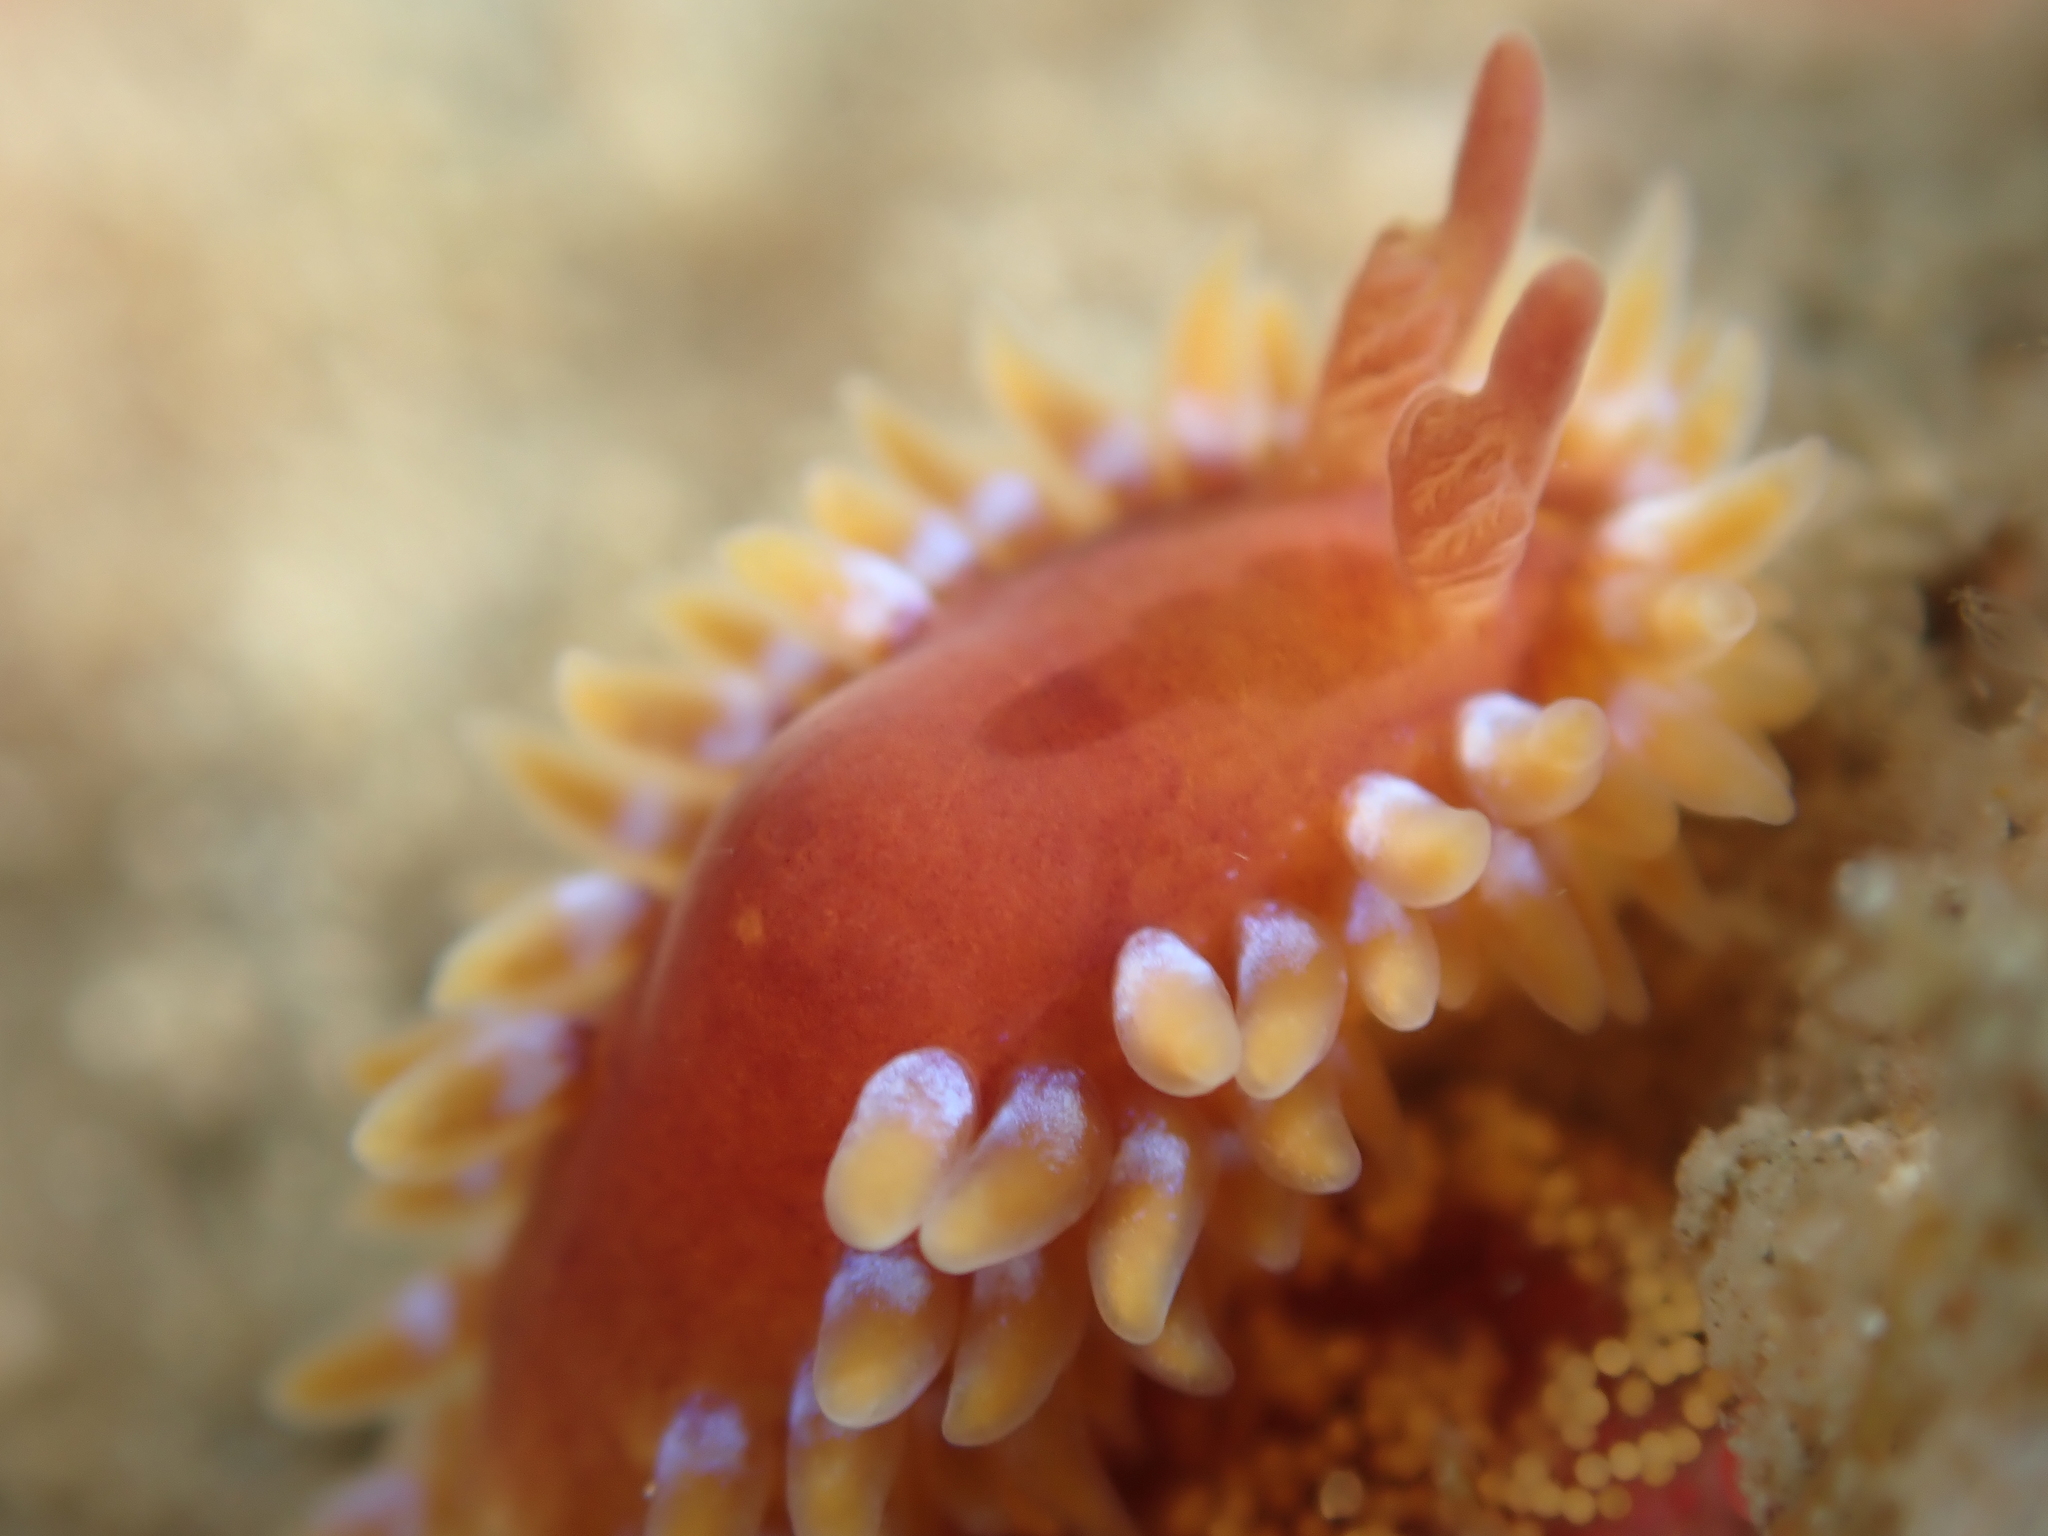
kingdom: Animalia
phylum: Mollusca
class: Gastropoda
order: Nudibranchia
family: Proctonotidae
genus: Caldukia
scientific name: Caldukia rubiginosa
